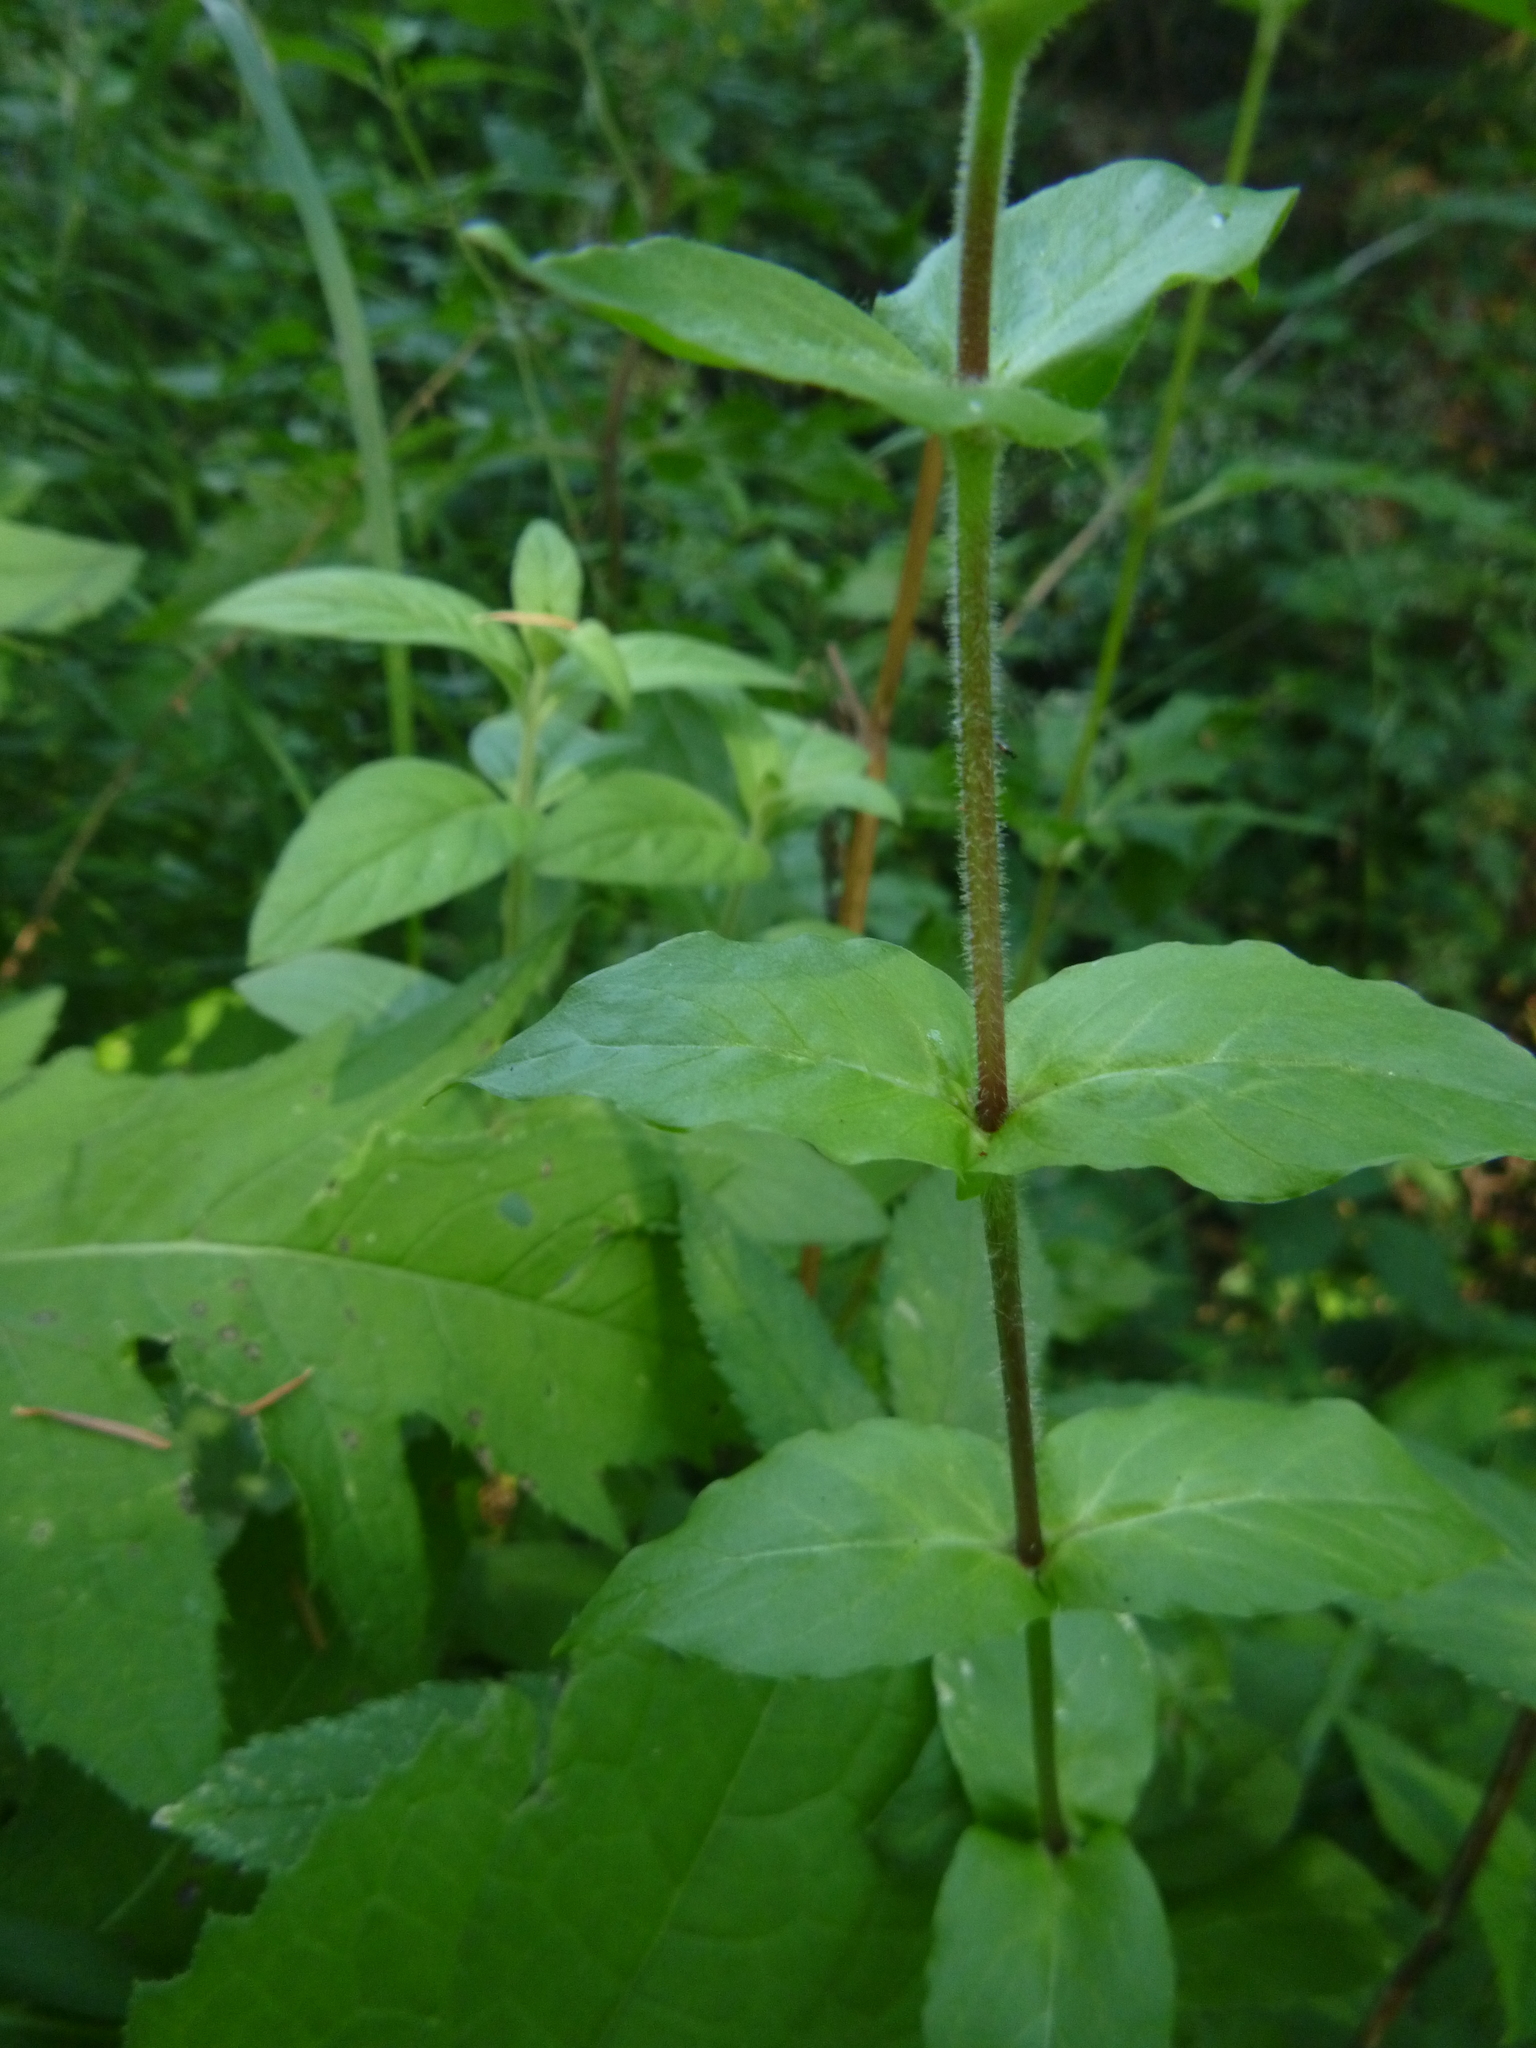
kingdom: Plantae
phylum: Tracheophyta
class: Magnoliopsida
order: Caryophyllales
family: Caryophyllaceae
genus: Stellaria
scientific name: Stellaria aquatica
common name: Water chickweed
